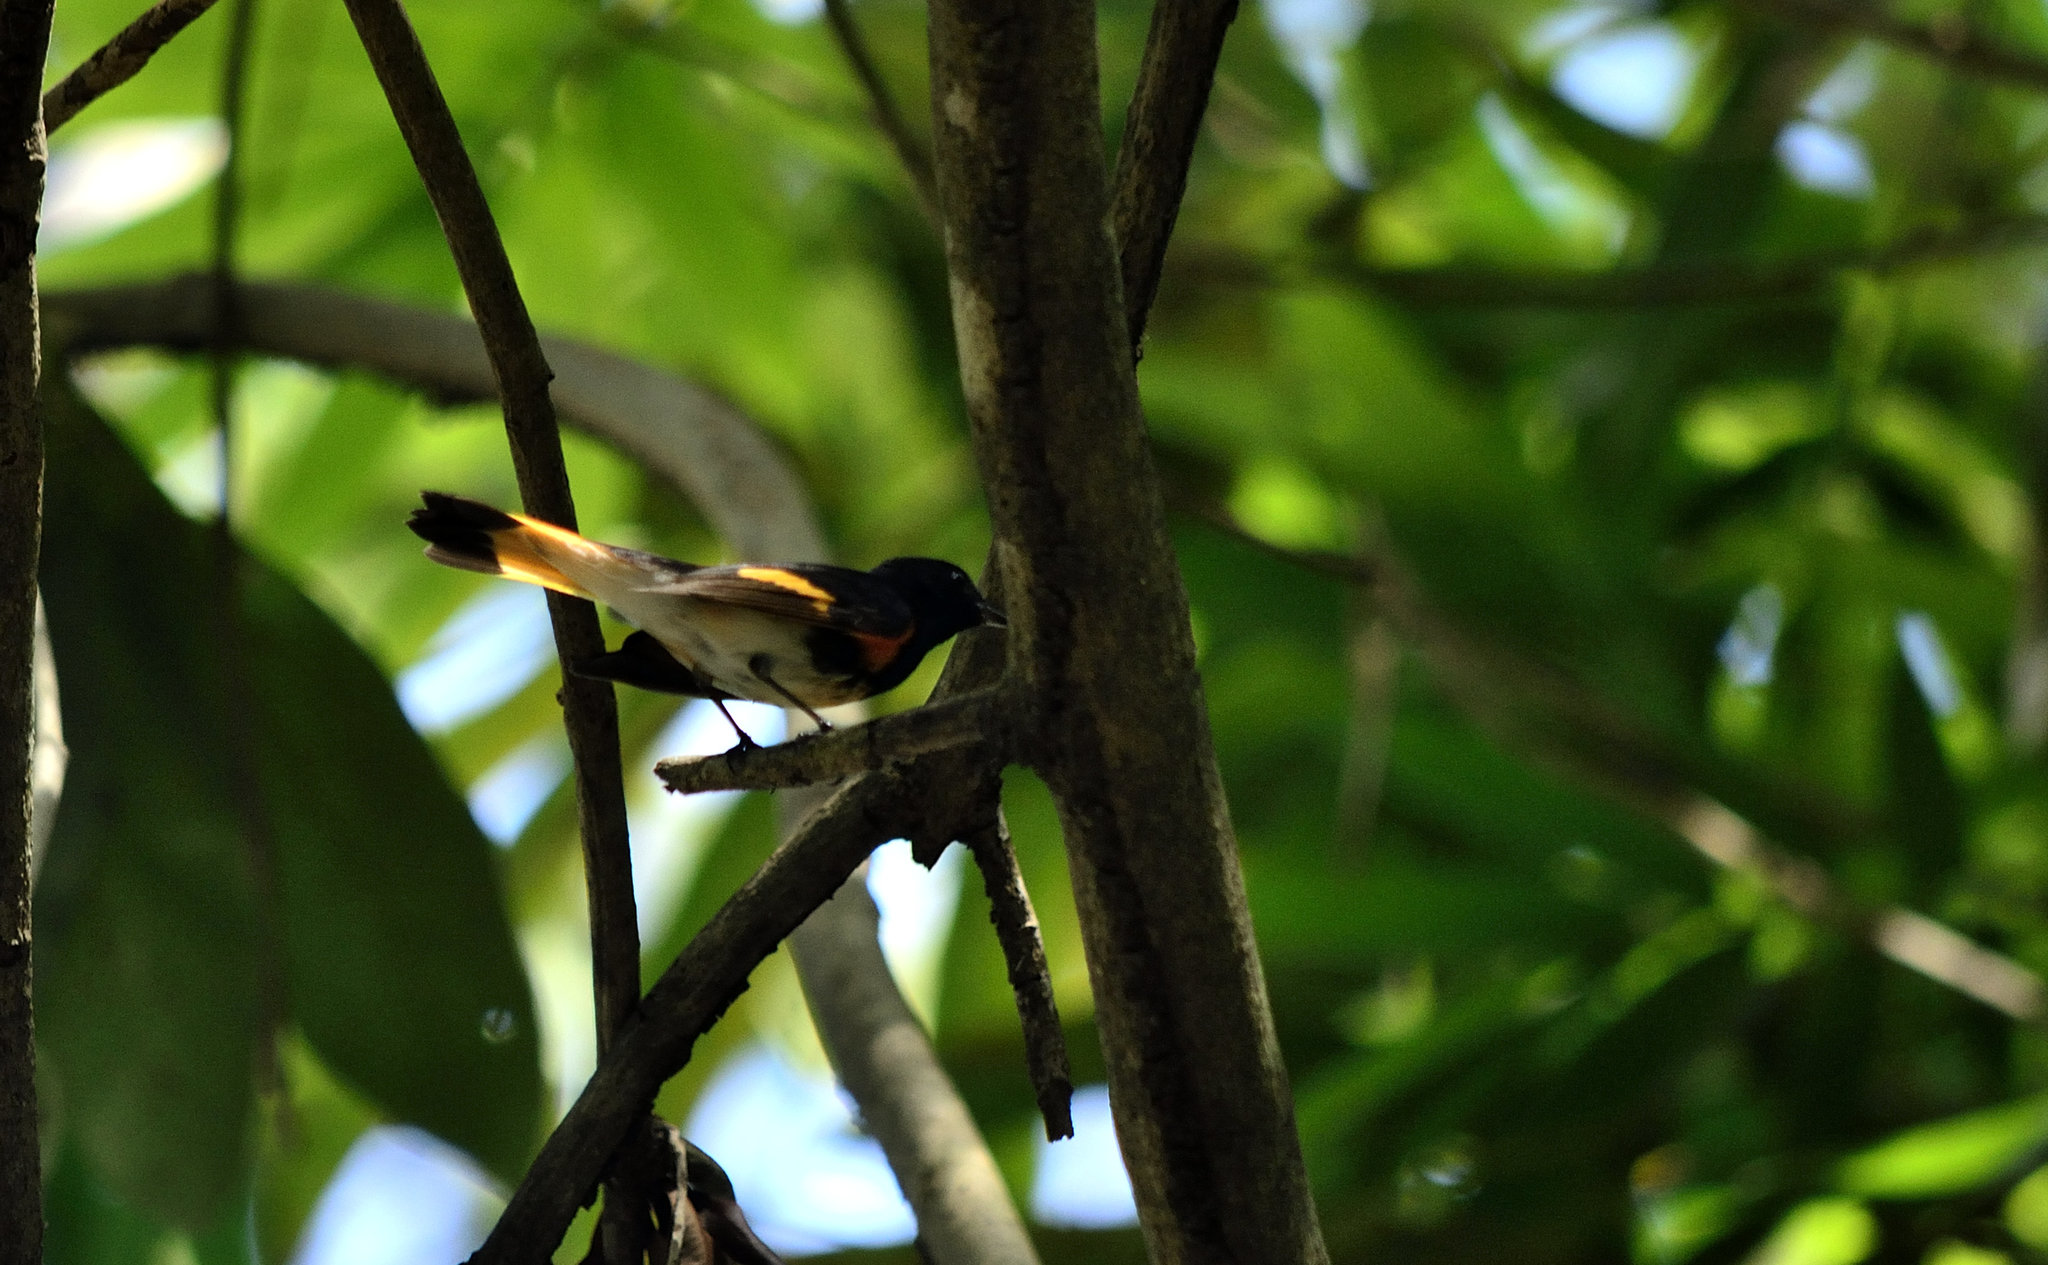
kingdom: Animalia
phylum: Chordata
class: Aves
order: Passeriformes
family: Parulidae
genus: Setophaga
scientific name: Setophaga ruticilla
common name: American redstart
